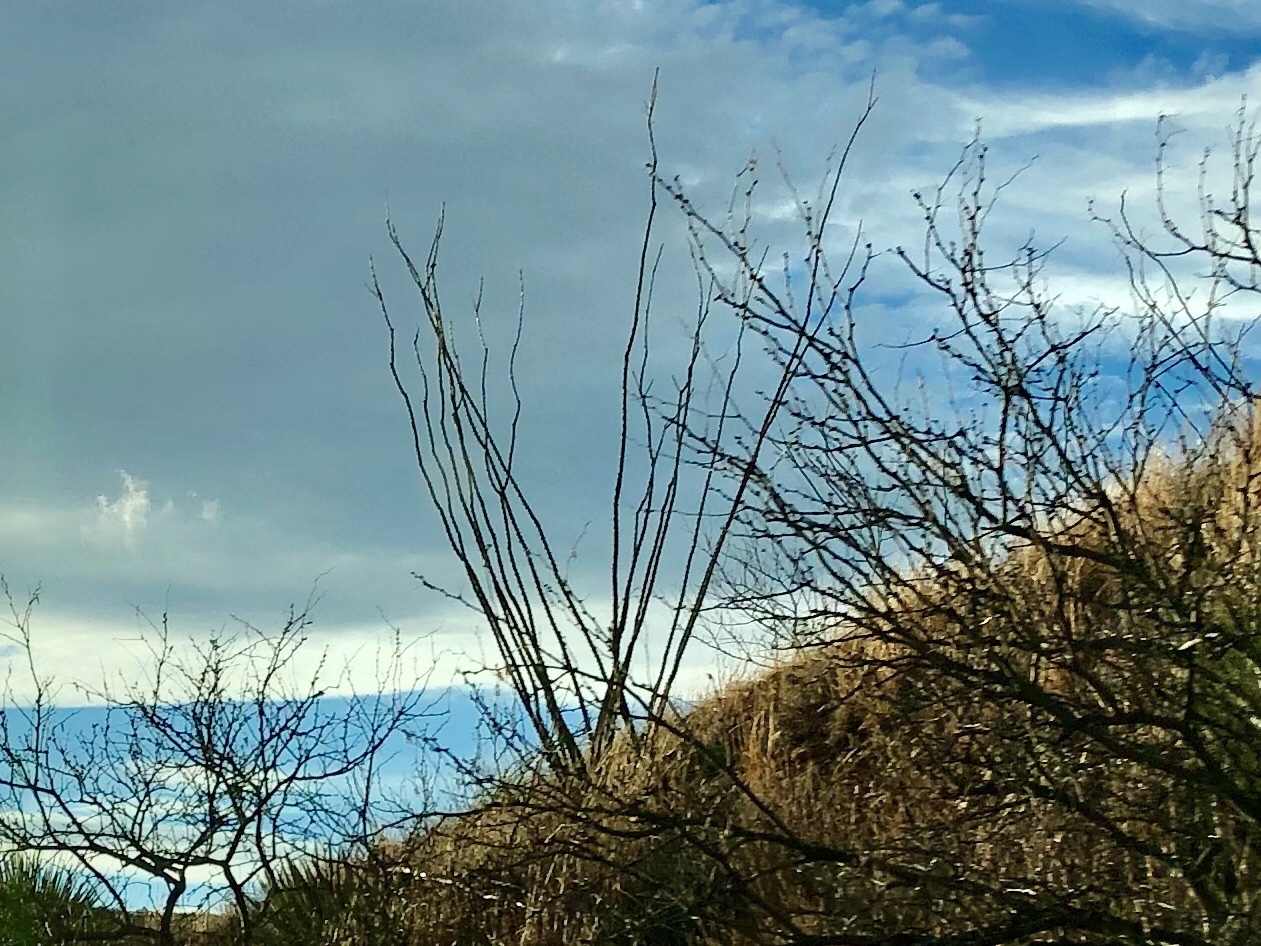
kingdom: Plantae
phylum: Tracheophyta
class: Magnoliopsida
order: Ericales
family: Fouquieriaceae
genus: Fouquieria
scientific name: Fouquieria splendens
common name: Vine-cactus
